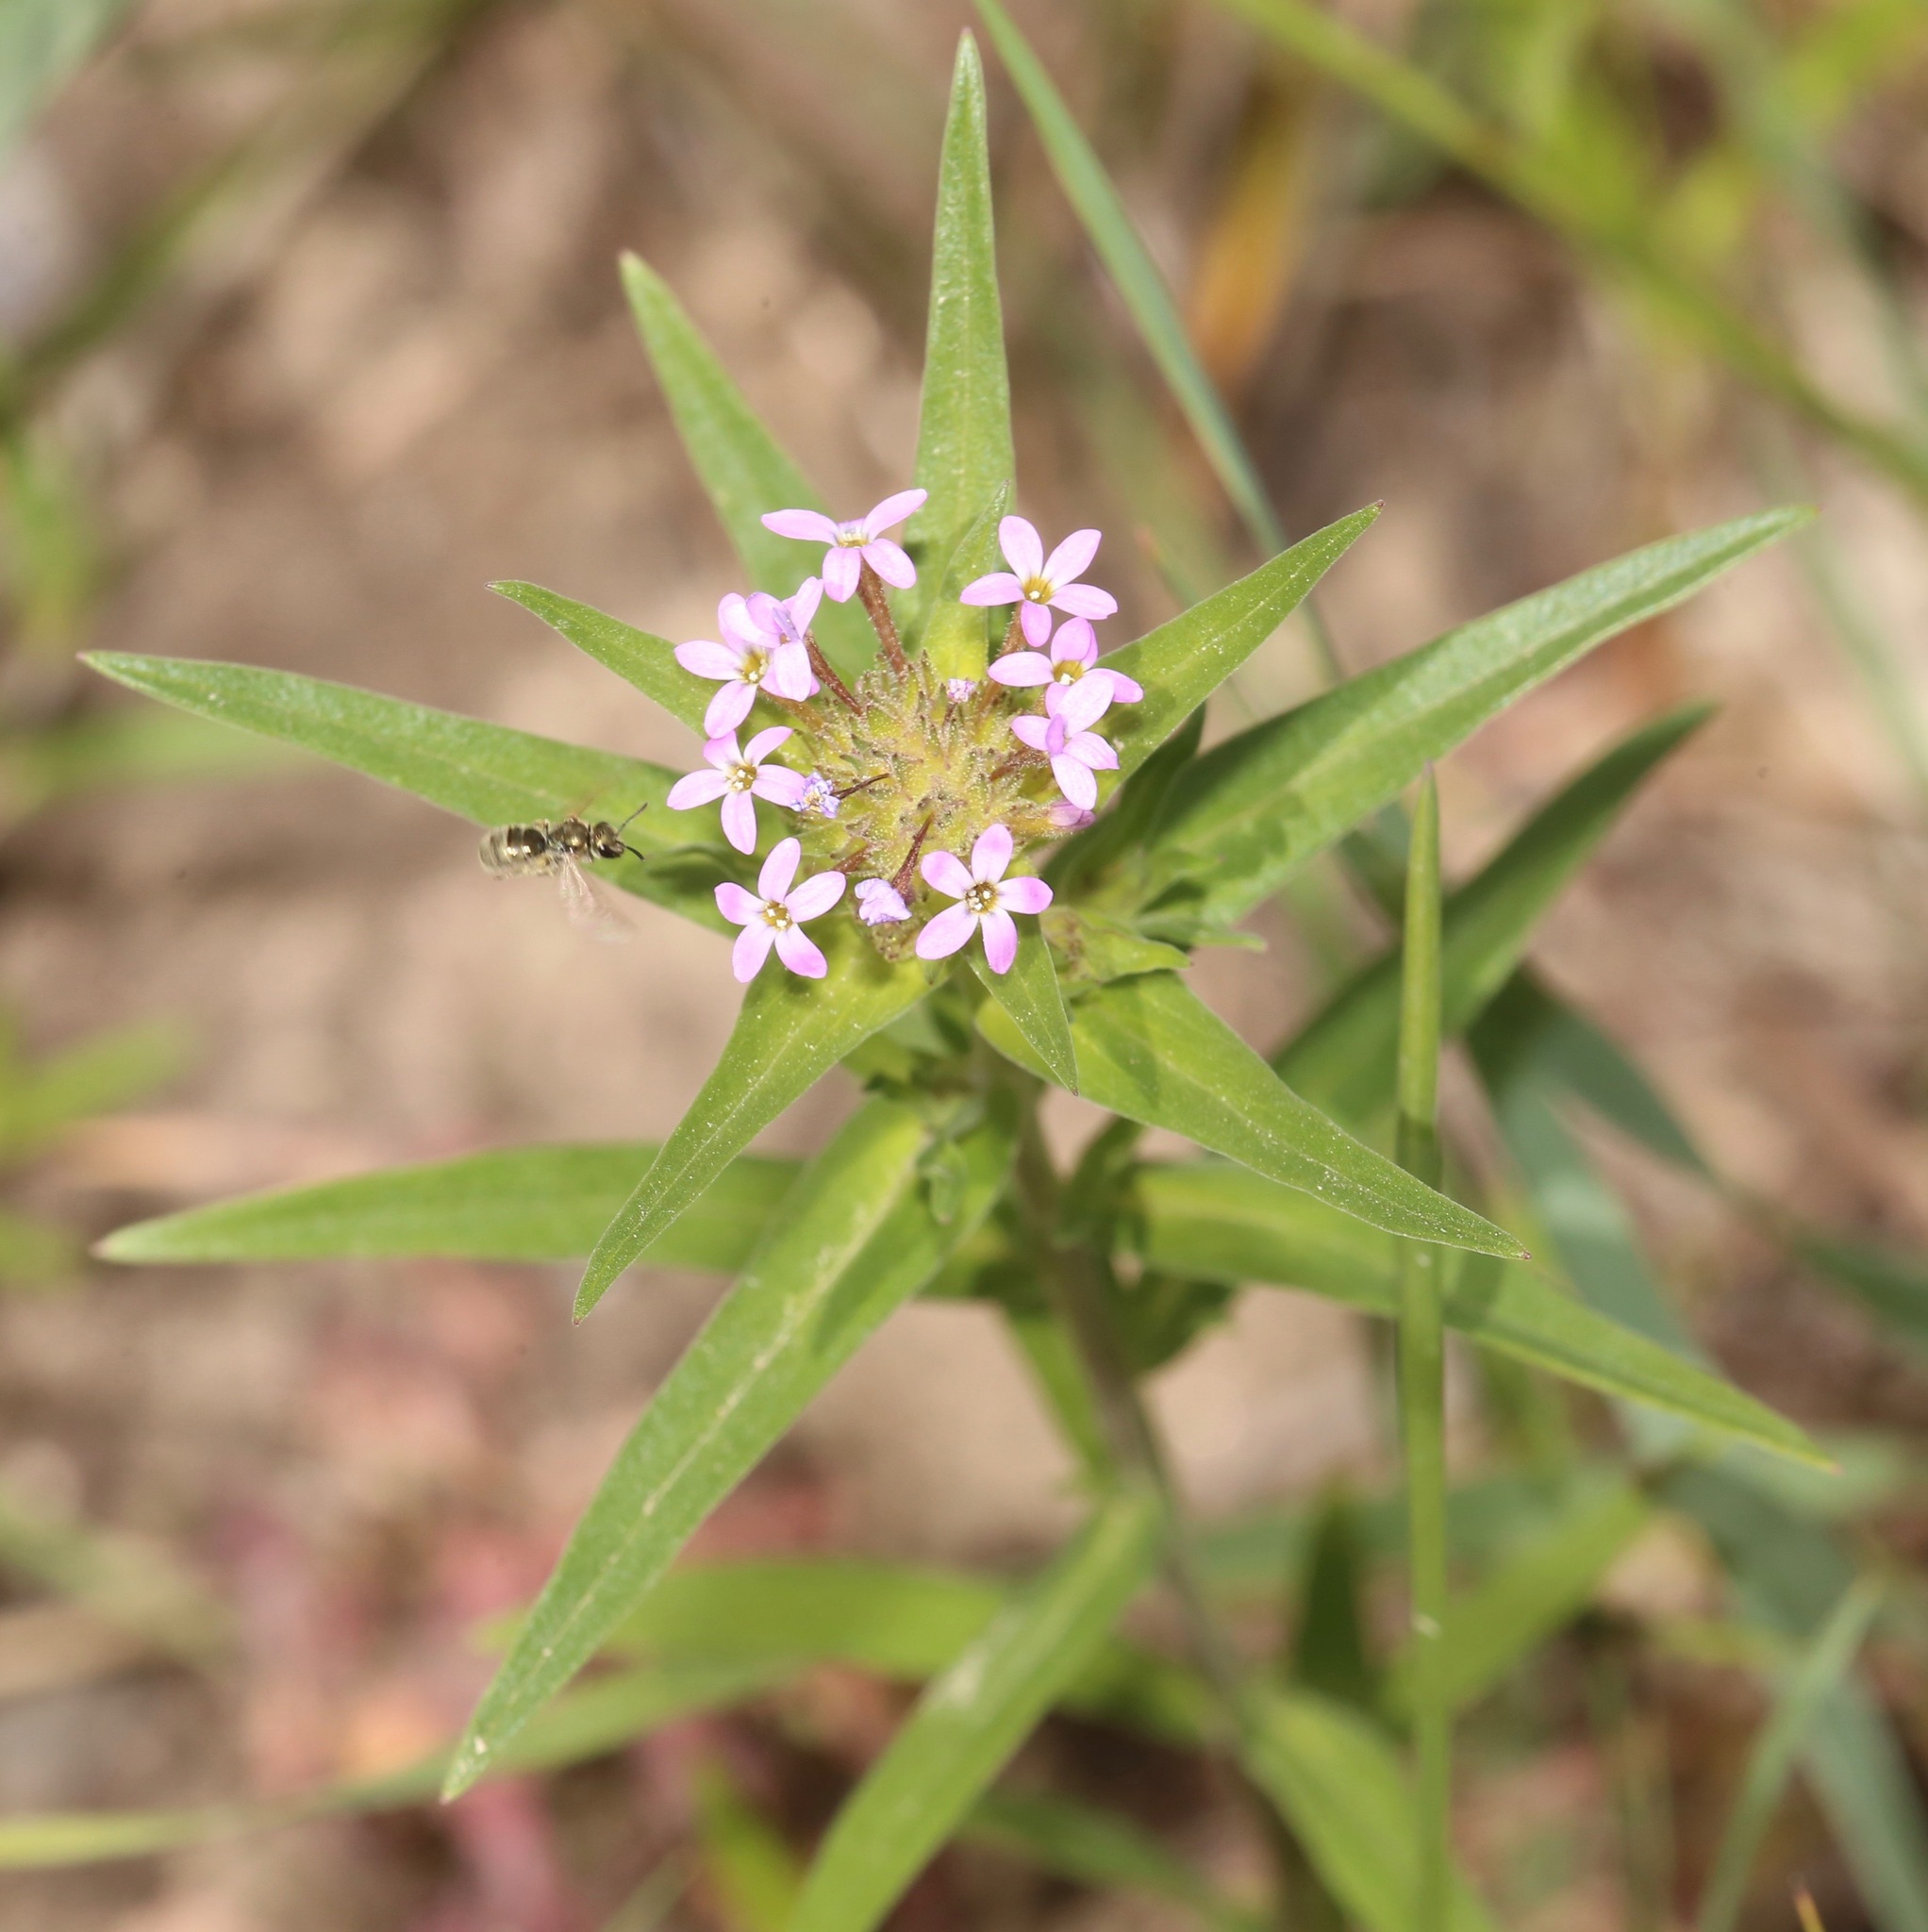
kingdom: Plantae
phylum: Tracheophyta
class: Magnoliopsida
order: Ericales
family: Polemoniaceae
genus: Collomia
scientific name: Collomia linearis
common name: Tiny trumpet
